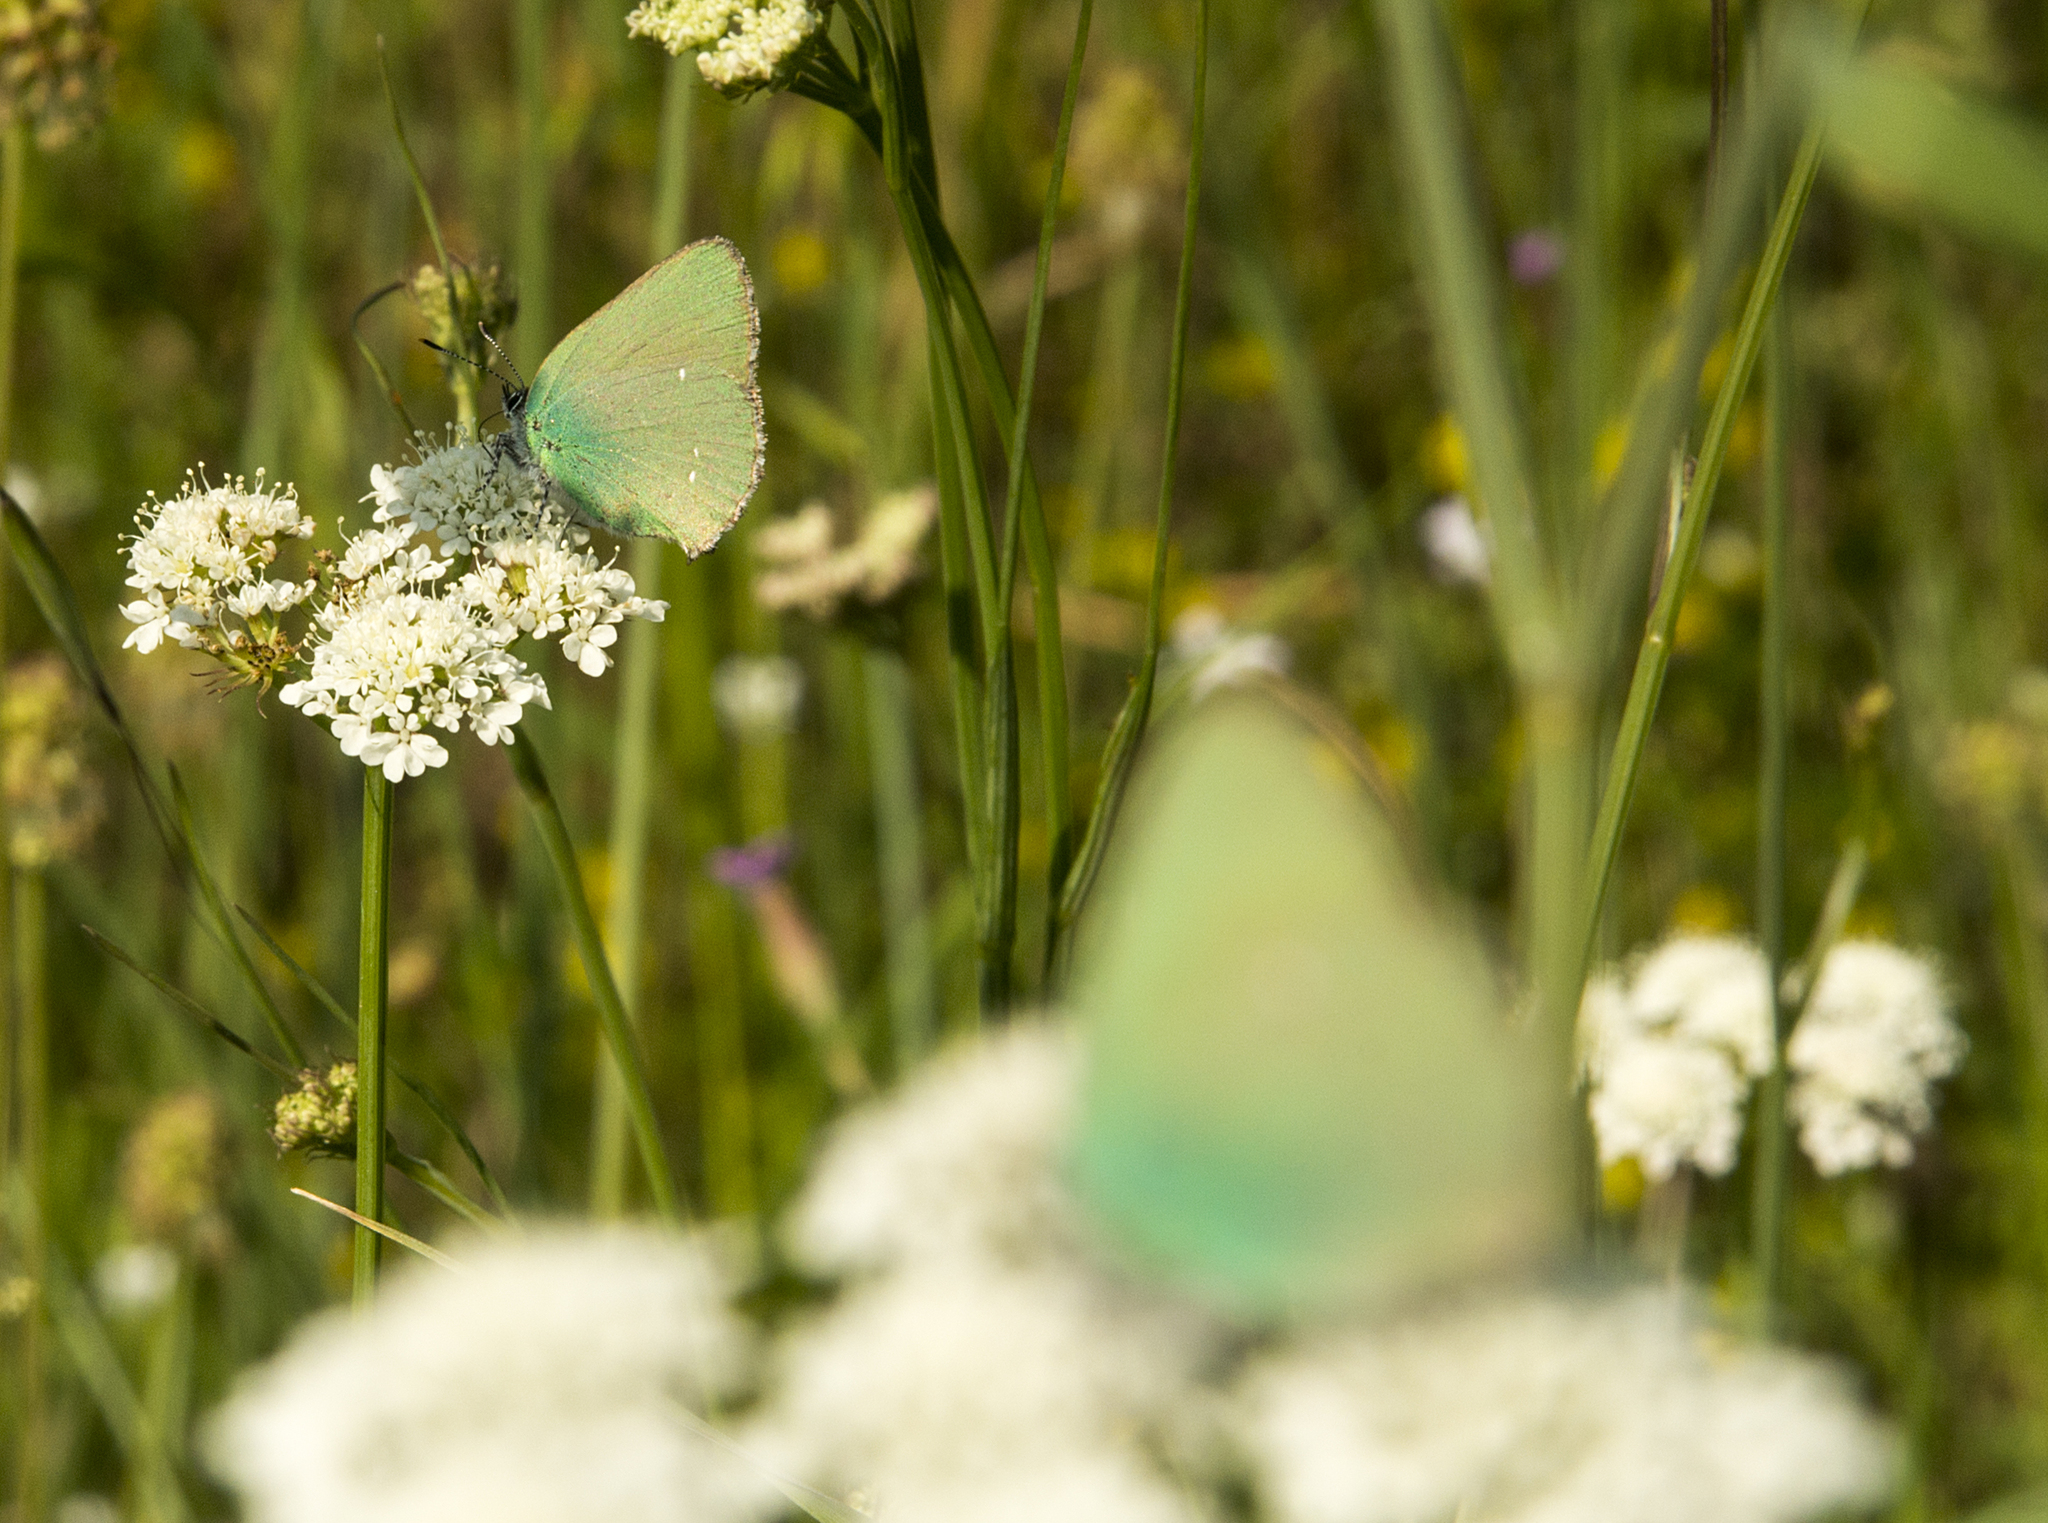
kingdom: Animalia
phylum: Arthropoda
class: Insecta
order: Lepidoptera
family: Lycaenidae
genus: Callophrys
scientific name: Callophrys rubi
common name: Green hairstreak
